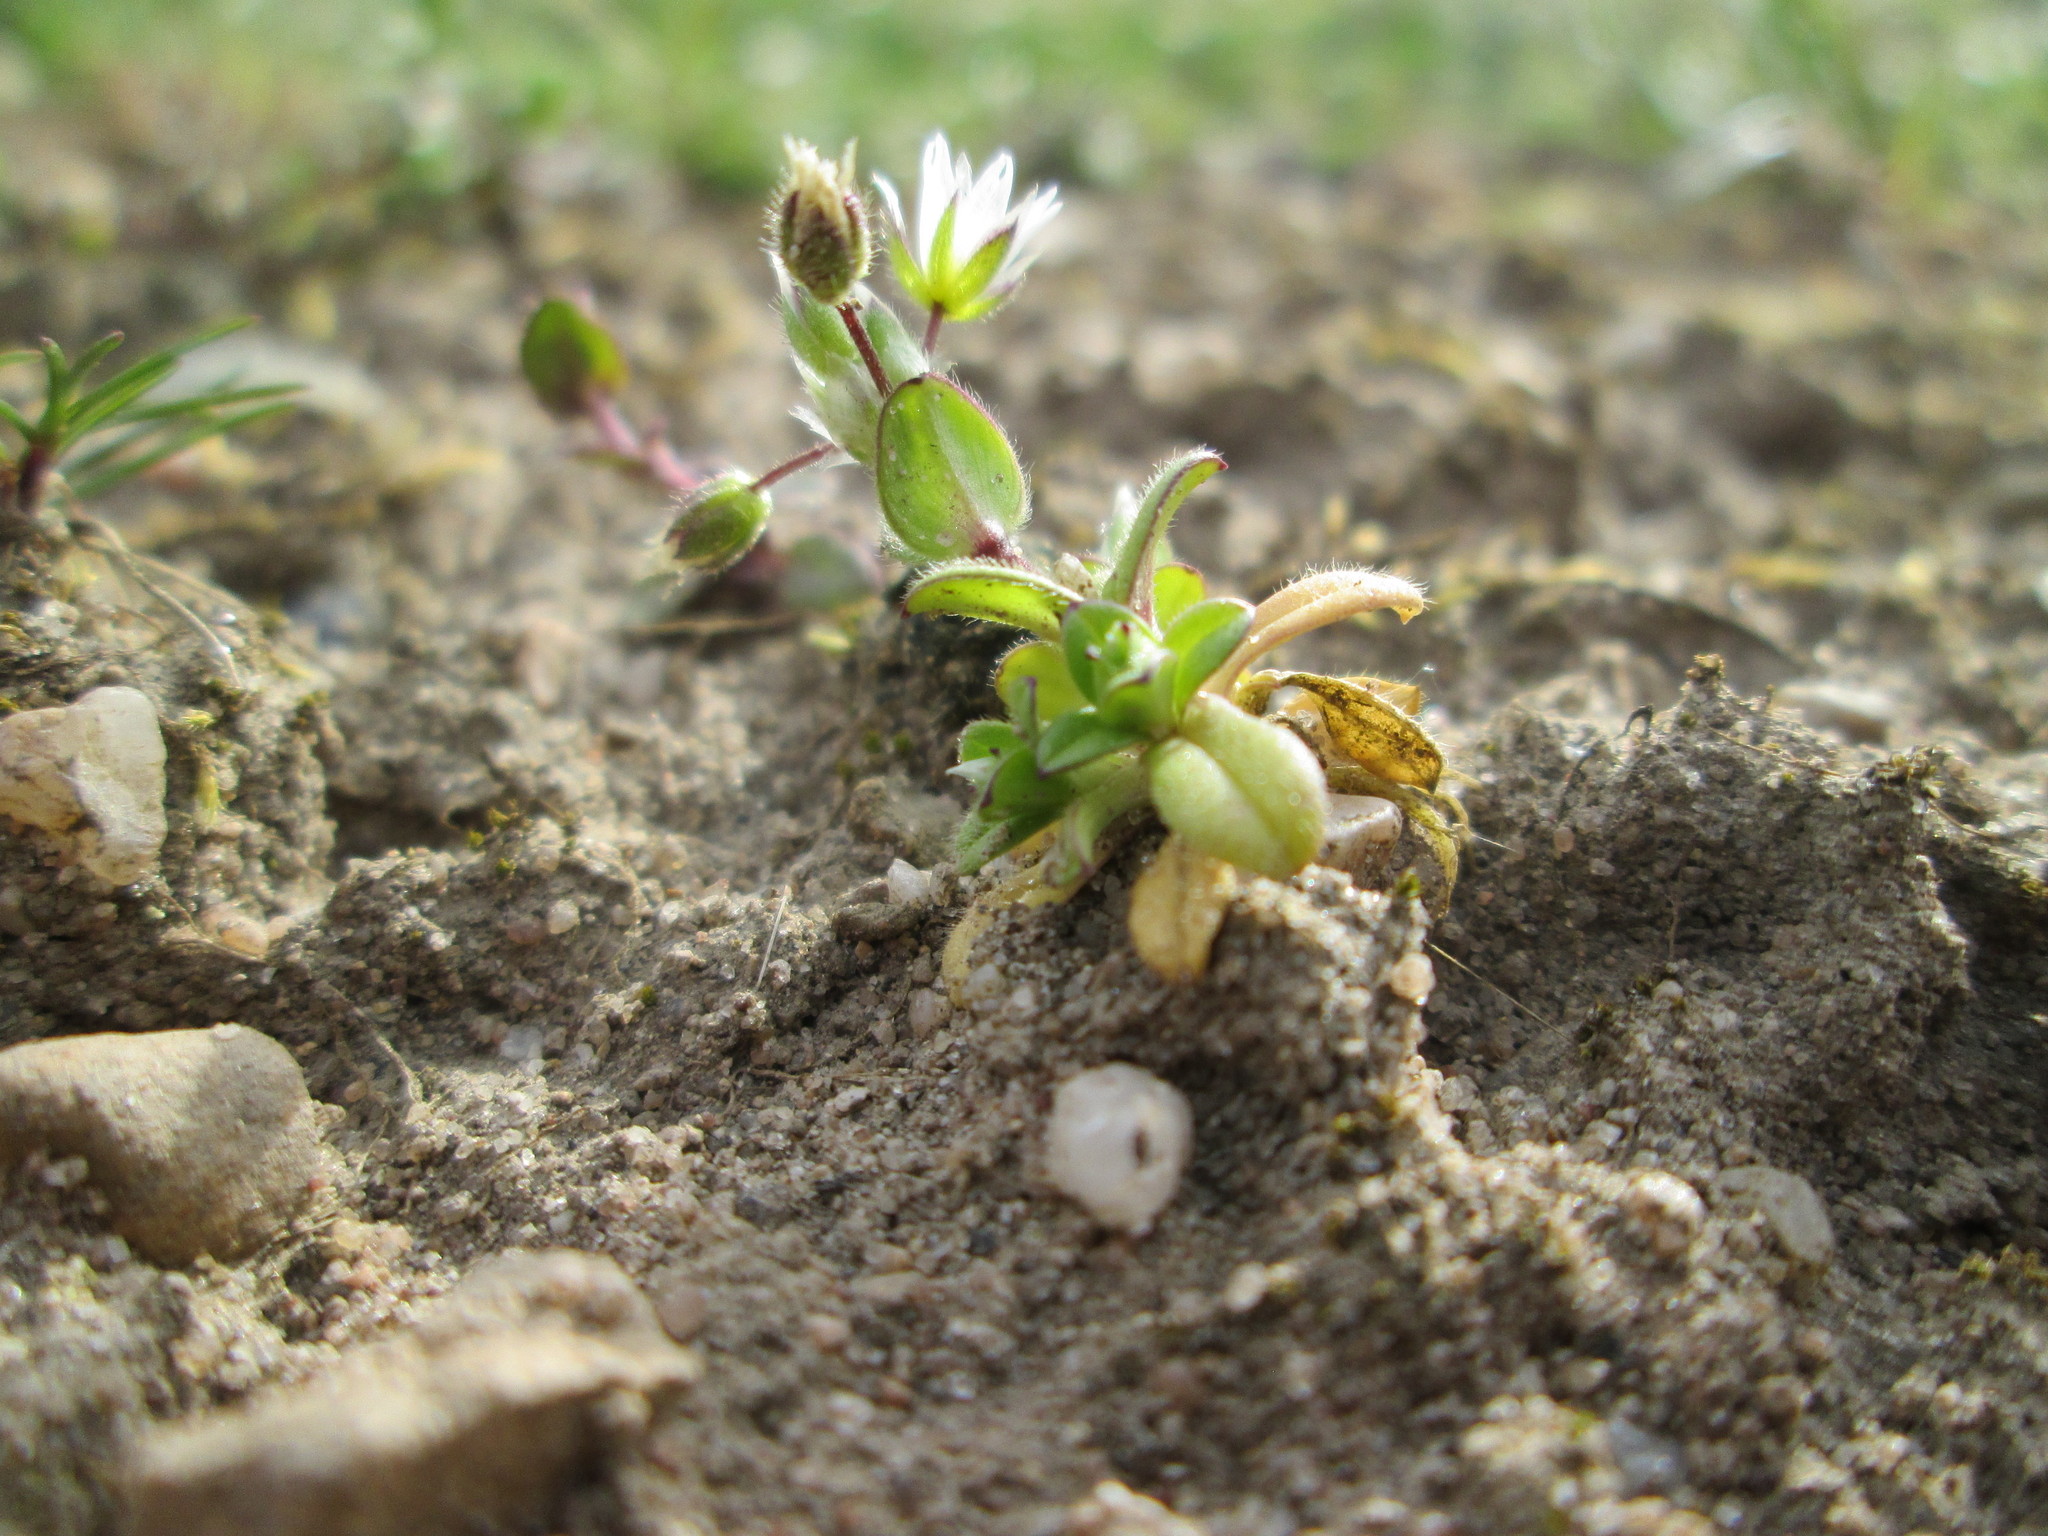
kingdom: Plantae
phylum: Tracheophyta
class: Magnoliopsida
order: Caryophyllales
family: Caryophyllaceae
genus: Cerastium
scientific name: Cerastium semidecandrum
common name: Little mouse-ear
